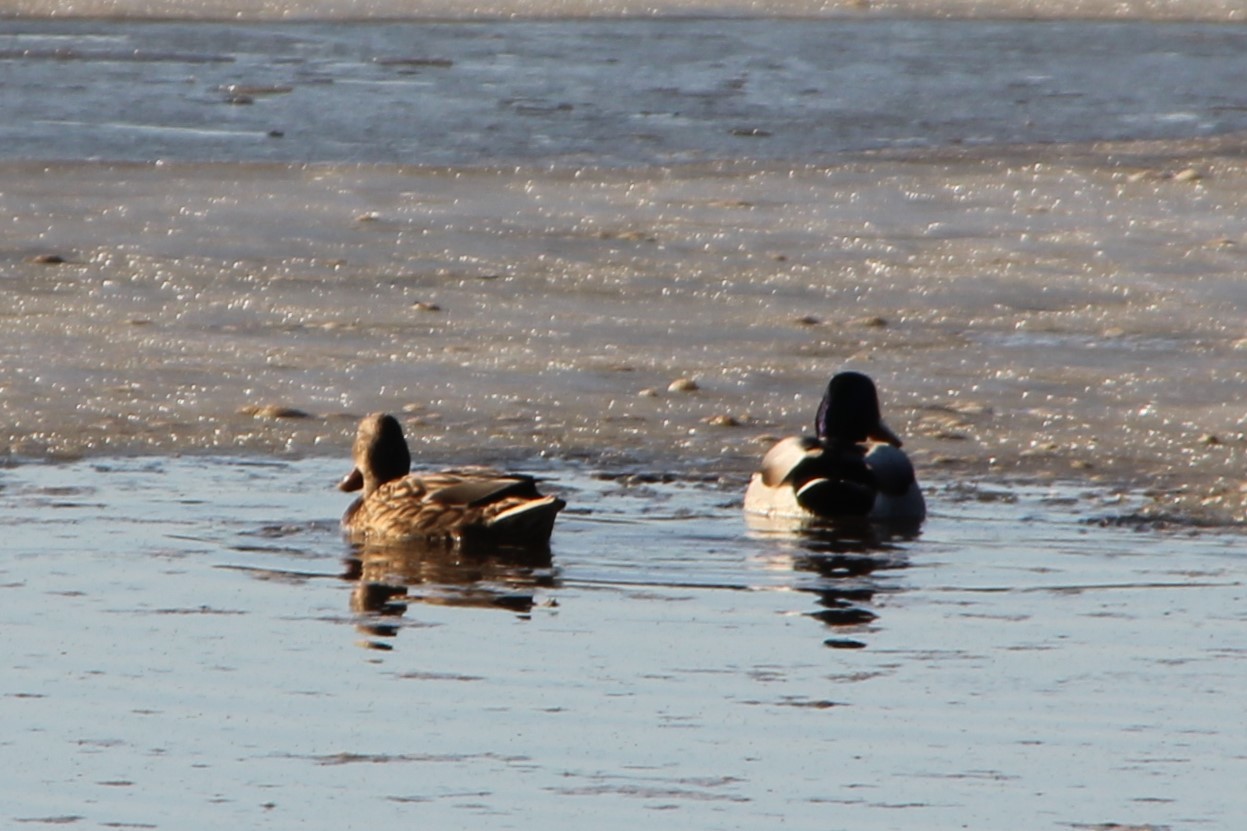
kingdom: Animalia
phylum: Chordata
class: Aves
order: Anseriformes
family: Anatidae
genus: Anas
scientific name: Anas platyrhynchos
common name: Mallard
